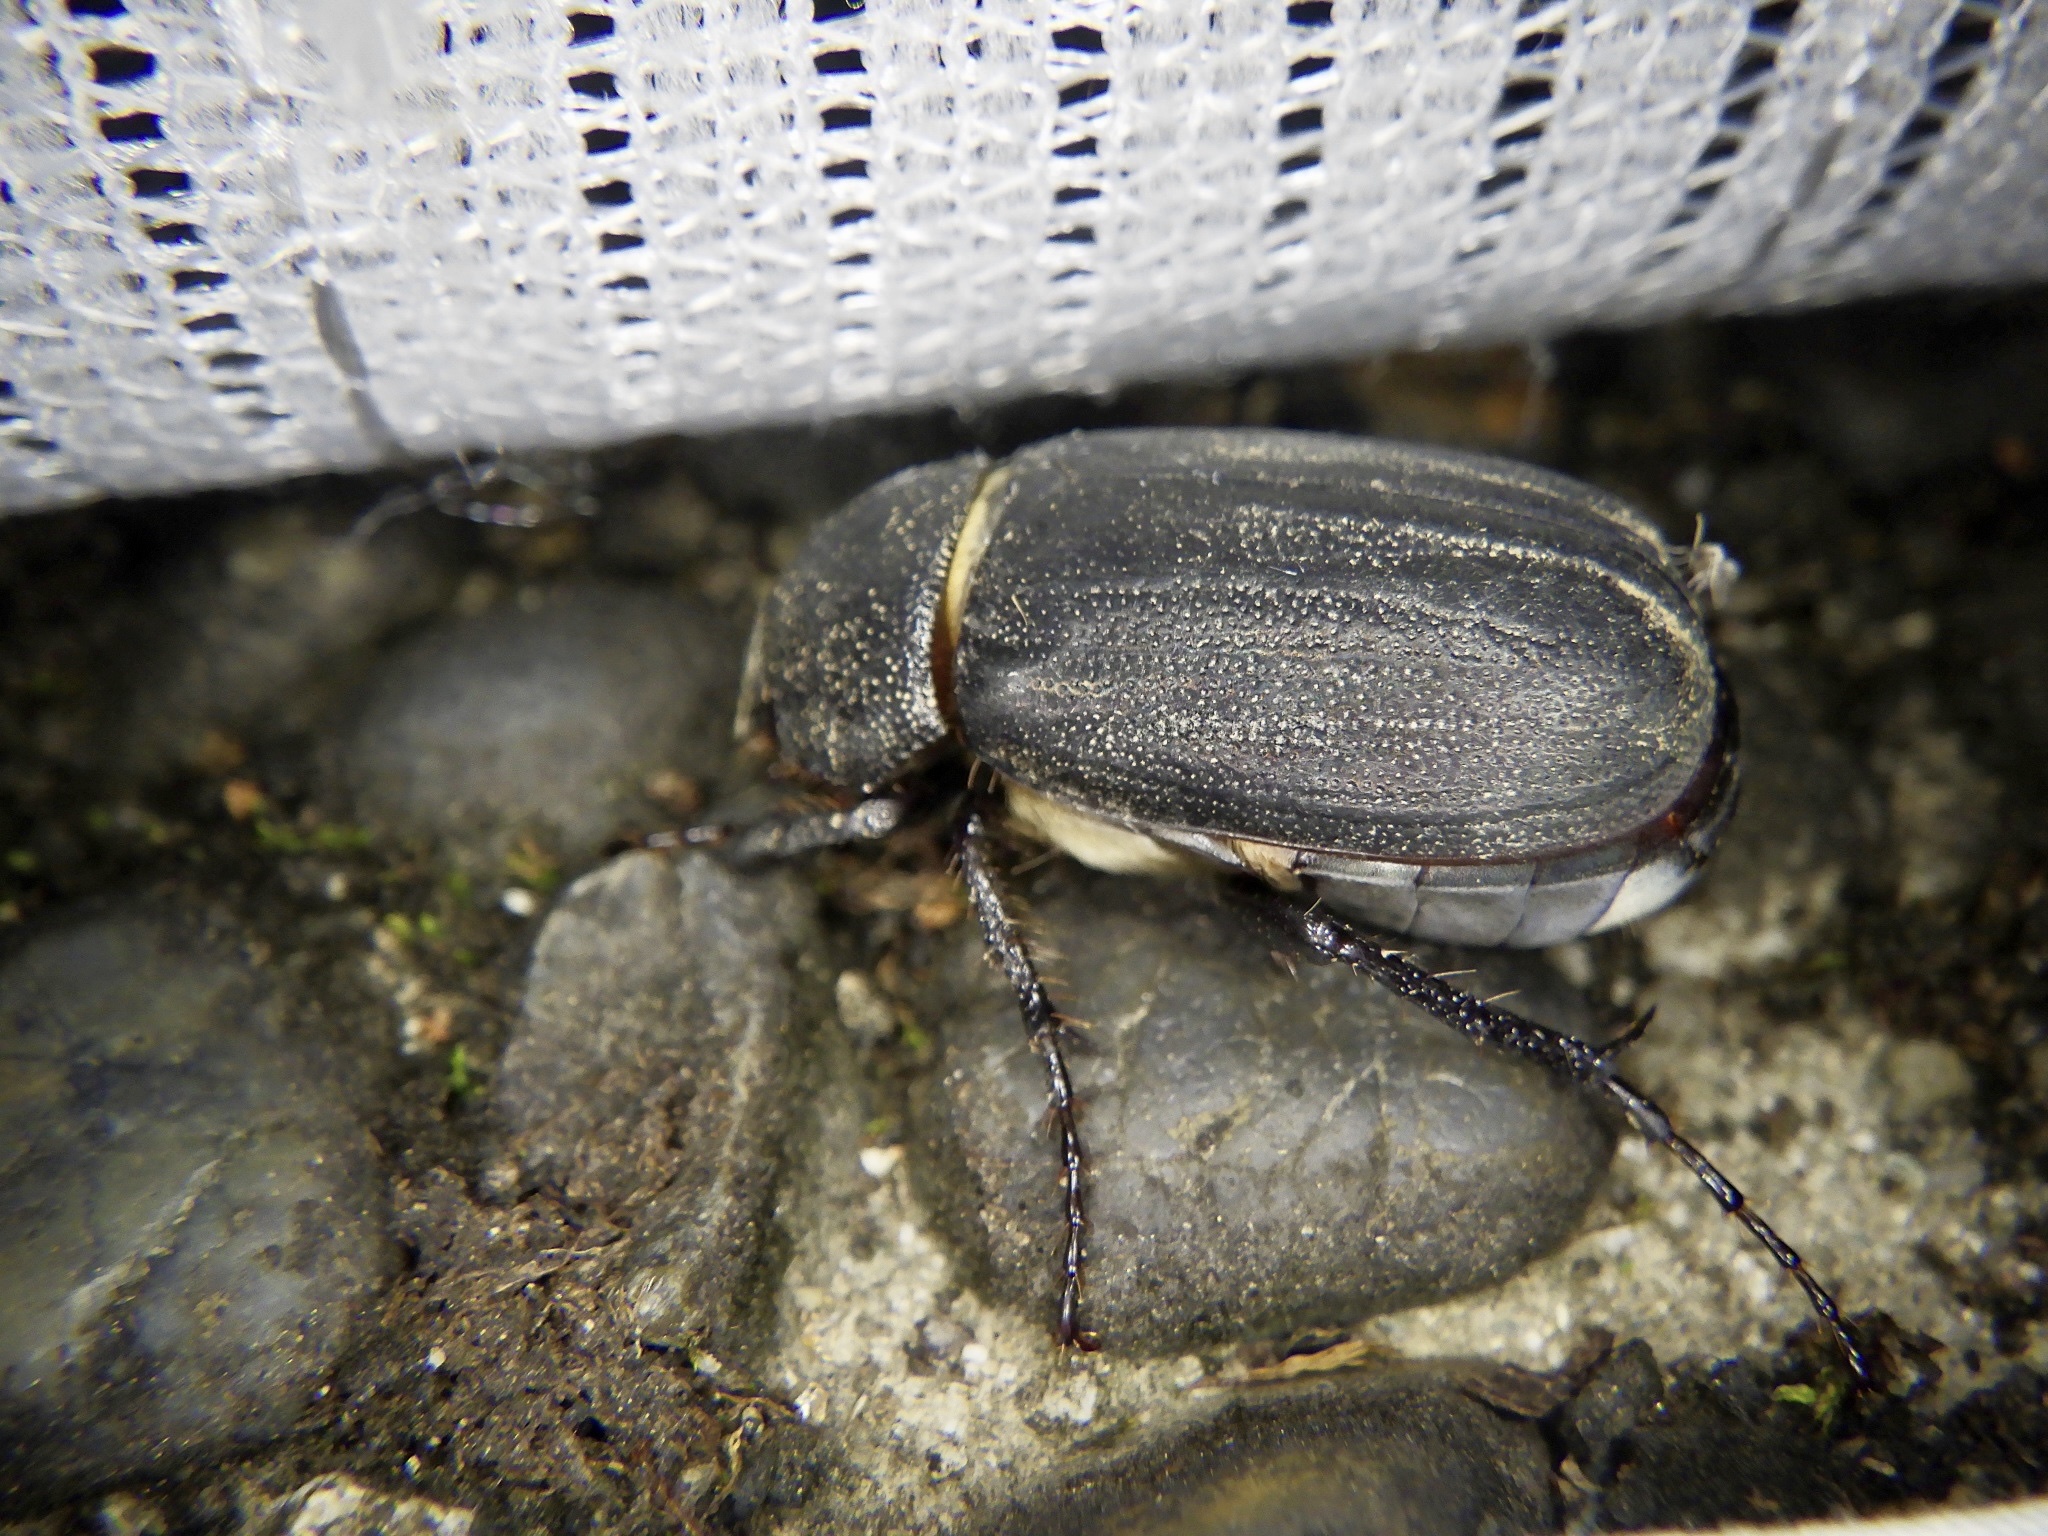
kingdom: Animalia
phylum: Arthropoda
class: Insecta
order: Coleoptera
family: Scarabaeidae
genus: Pedinotrichia
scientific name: Pedinotrichia parallela
